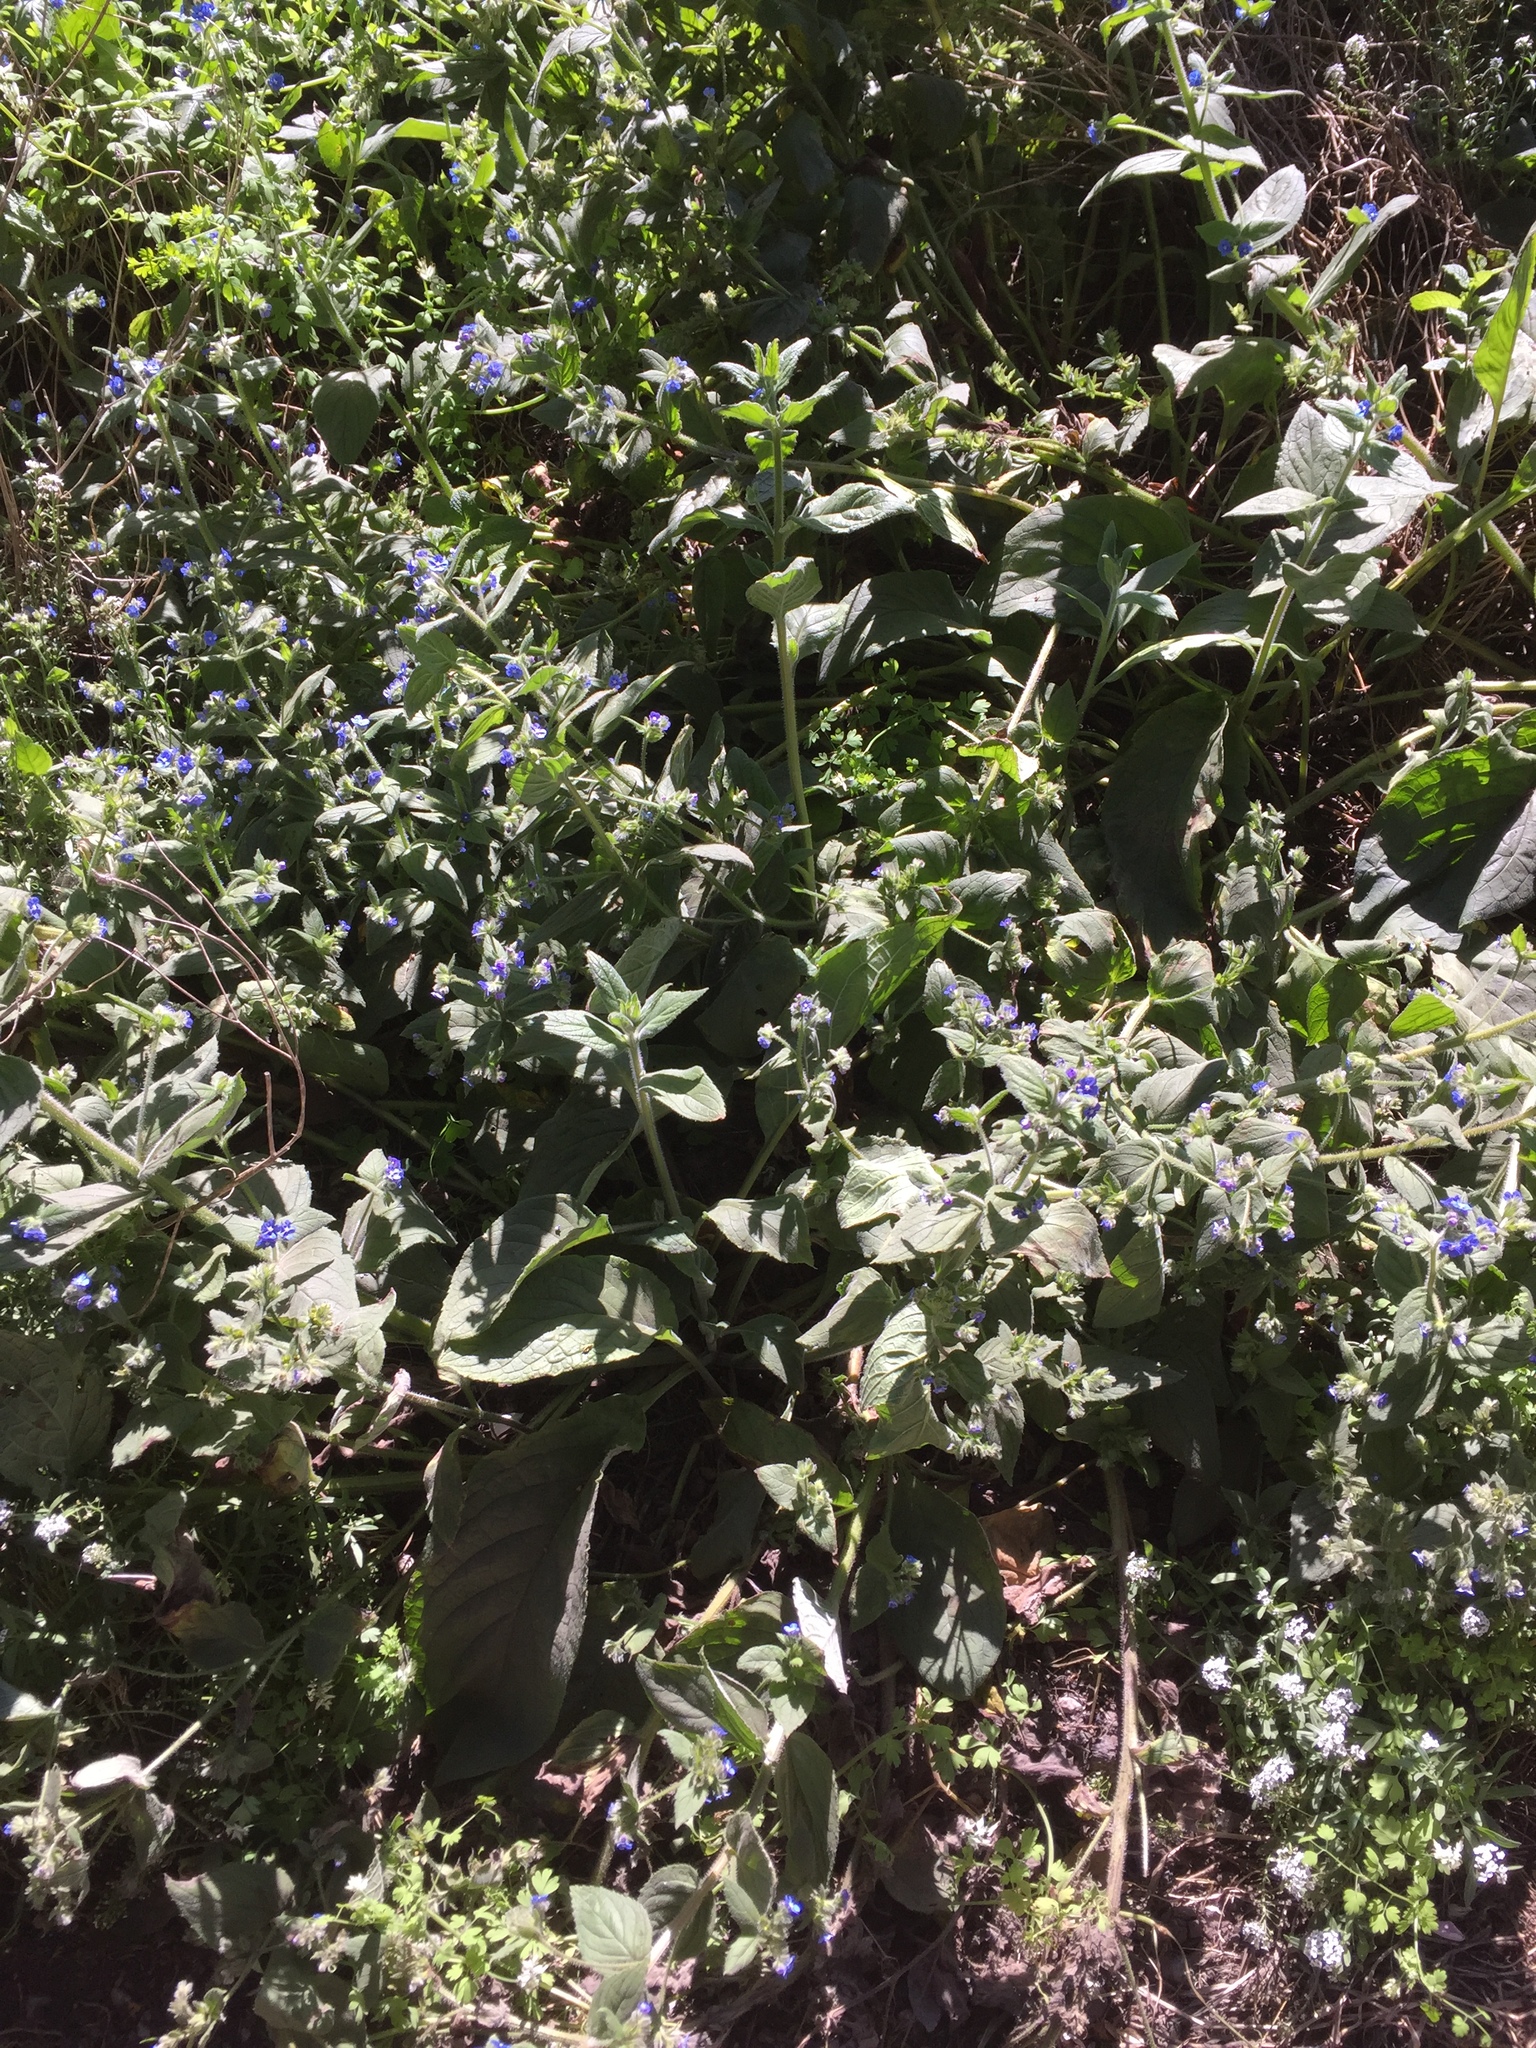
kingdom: Plantae
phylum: Tracheophyta
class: Magnoliopsida
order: Boraginales
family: Boraginaceae
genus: Pentaglottis
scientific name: Pentaglottis sempervirens
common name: Green alkanet
